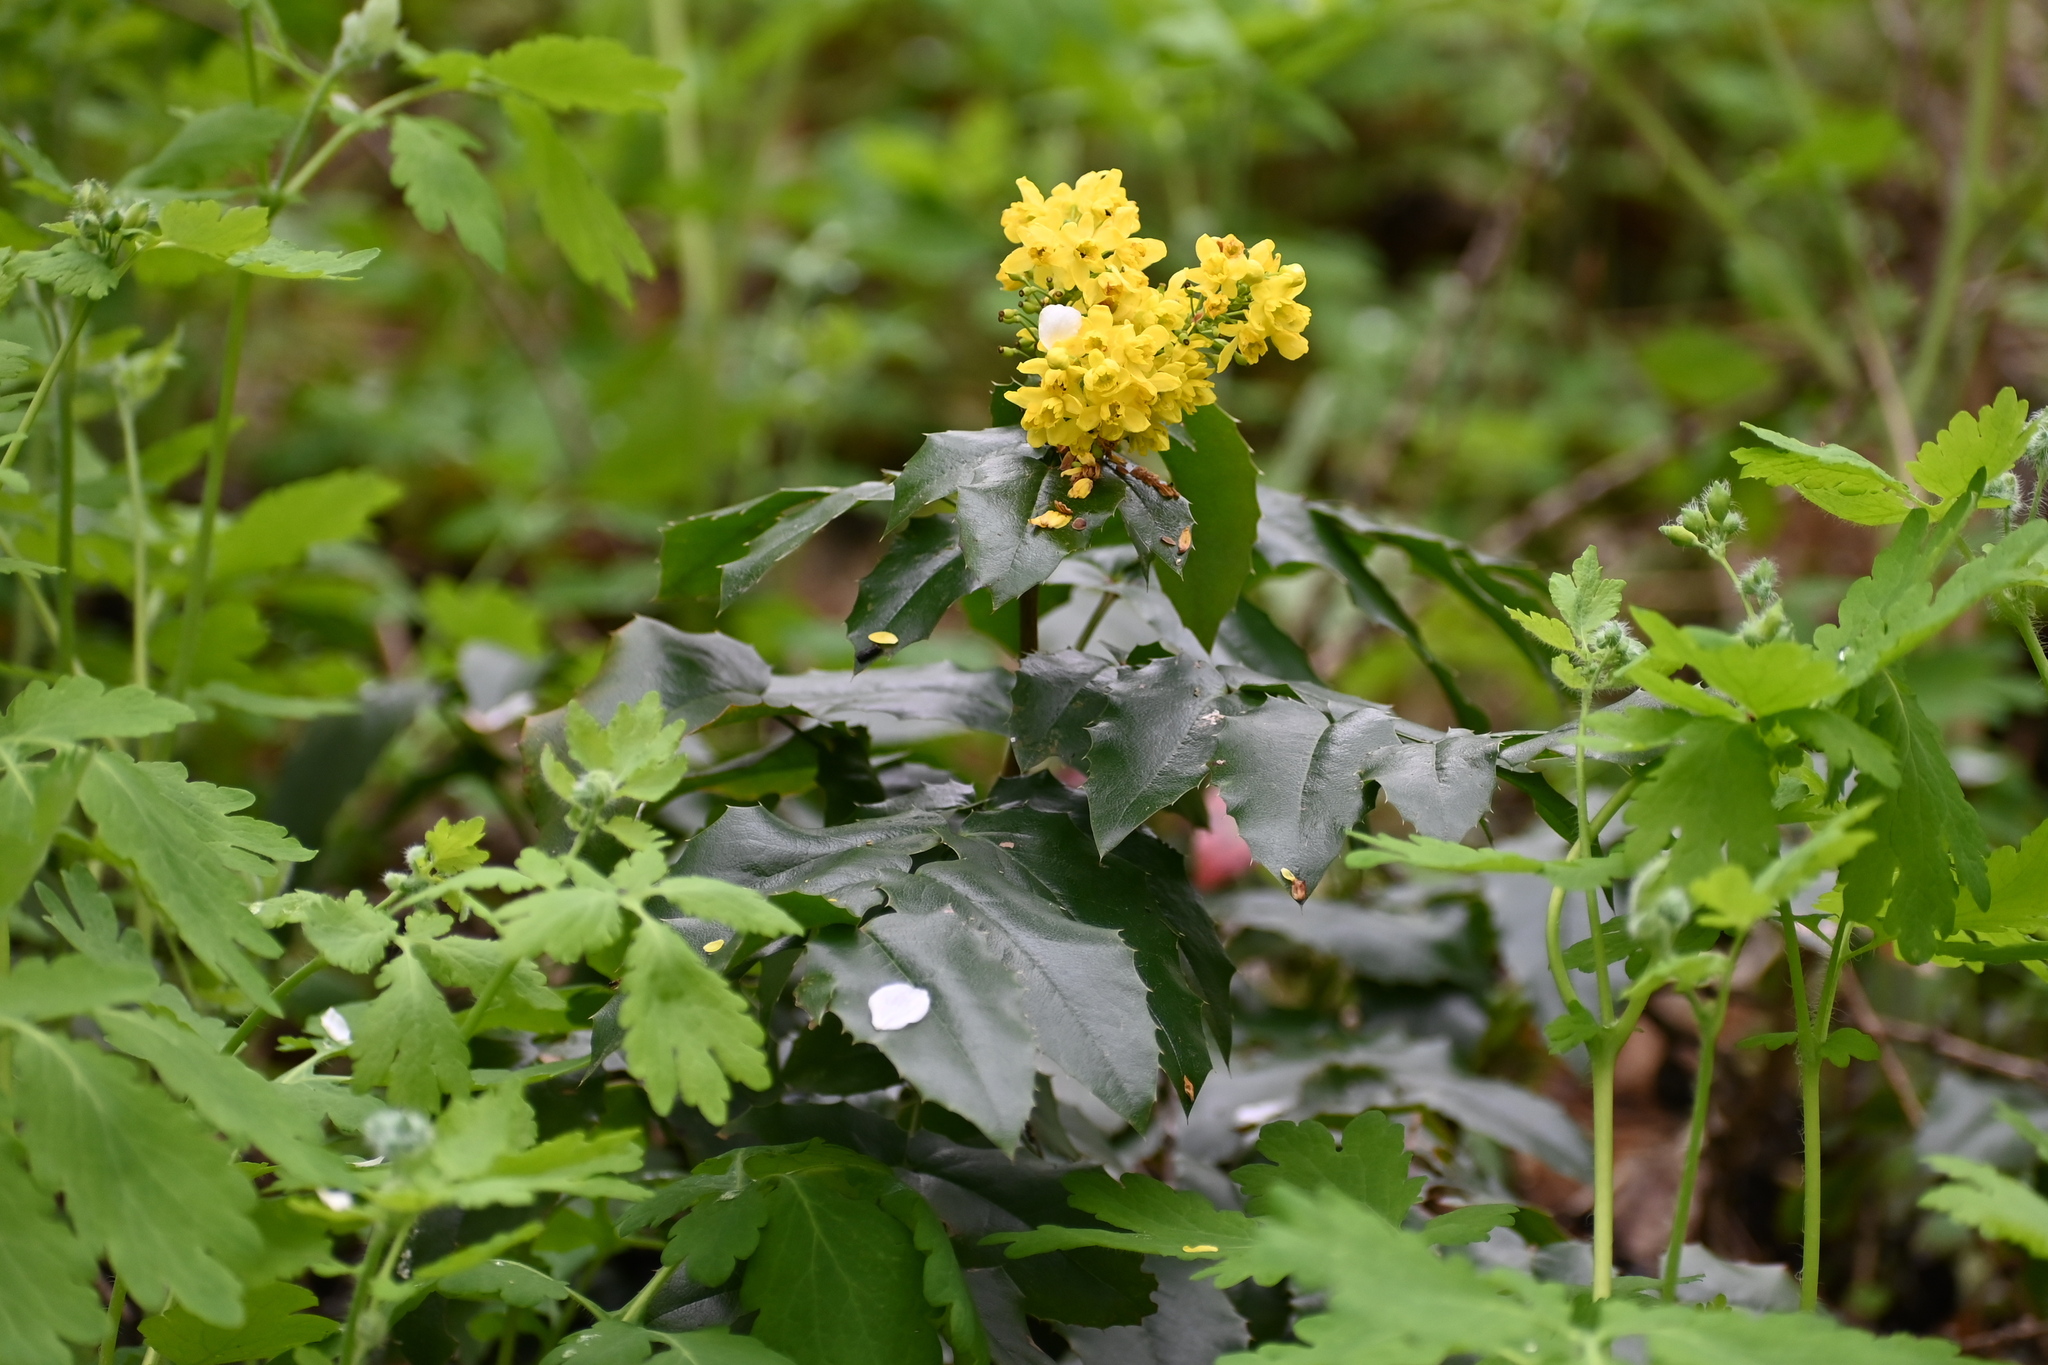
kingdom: Plantae
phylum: Tracheophyta
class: Magnoliopsida
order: Ranunculales
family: Berberidaceae
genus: Mahonia
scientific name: Mahonia aquifolium
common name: Oregon-grape
